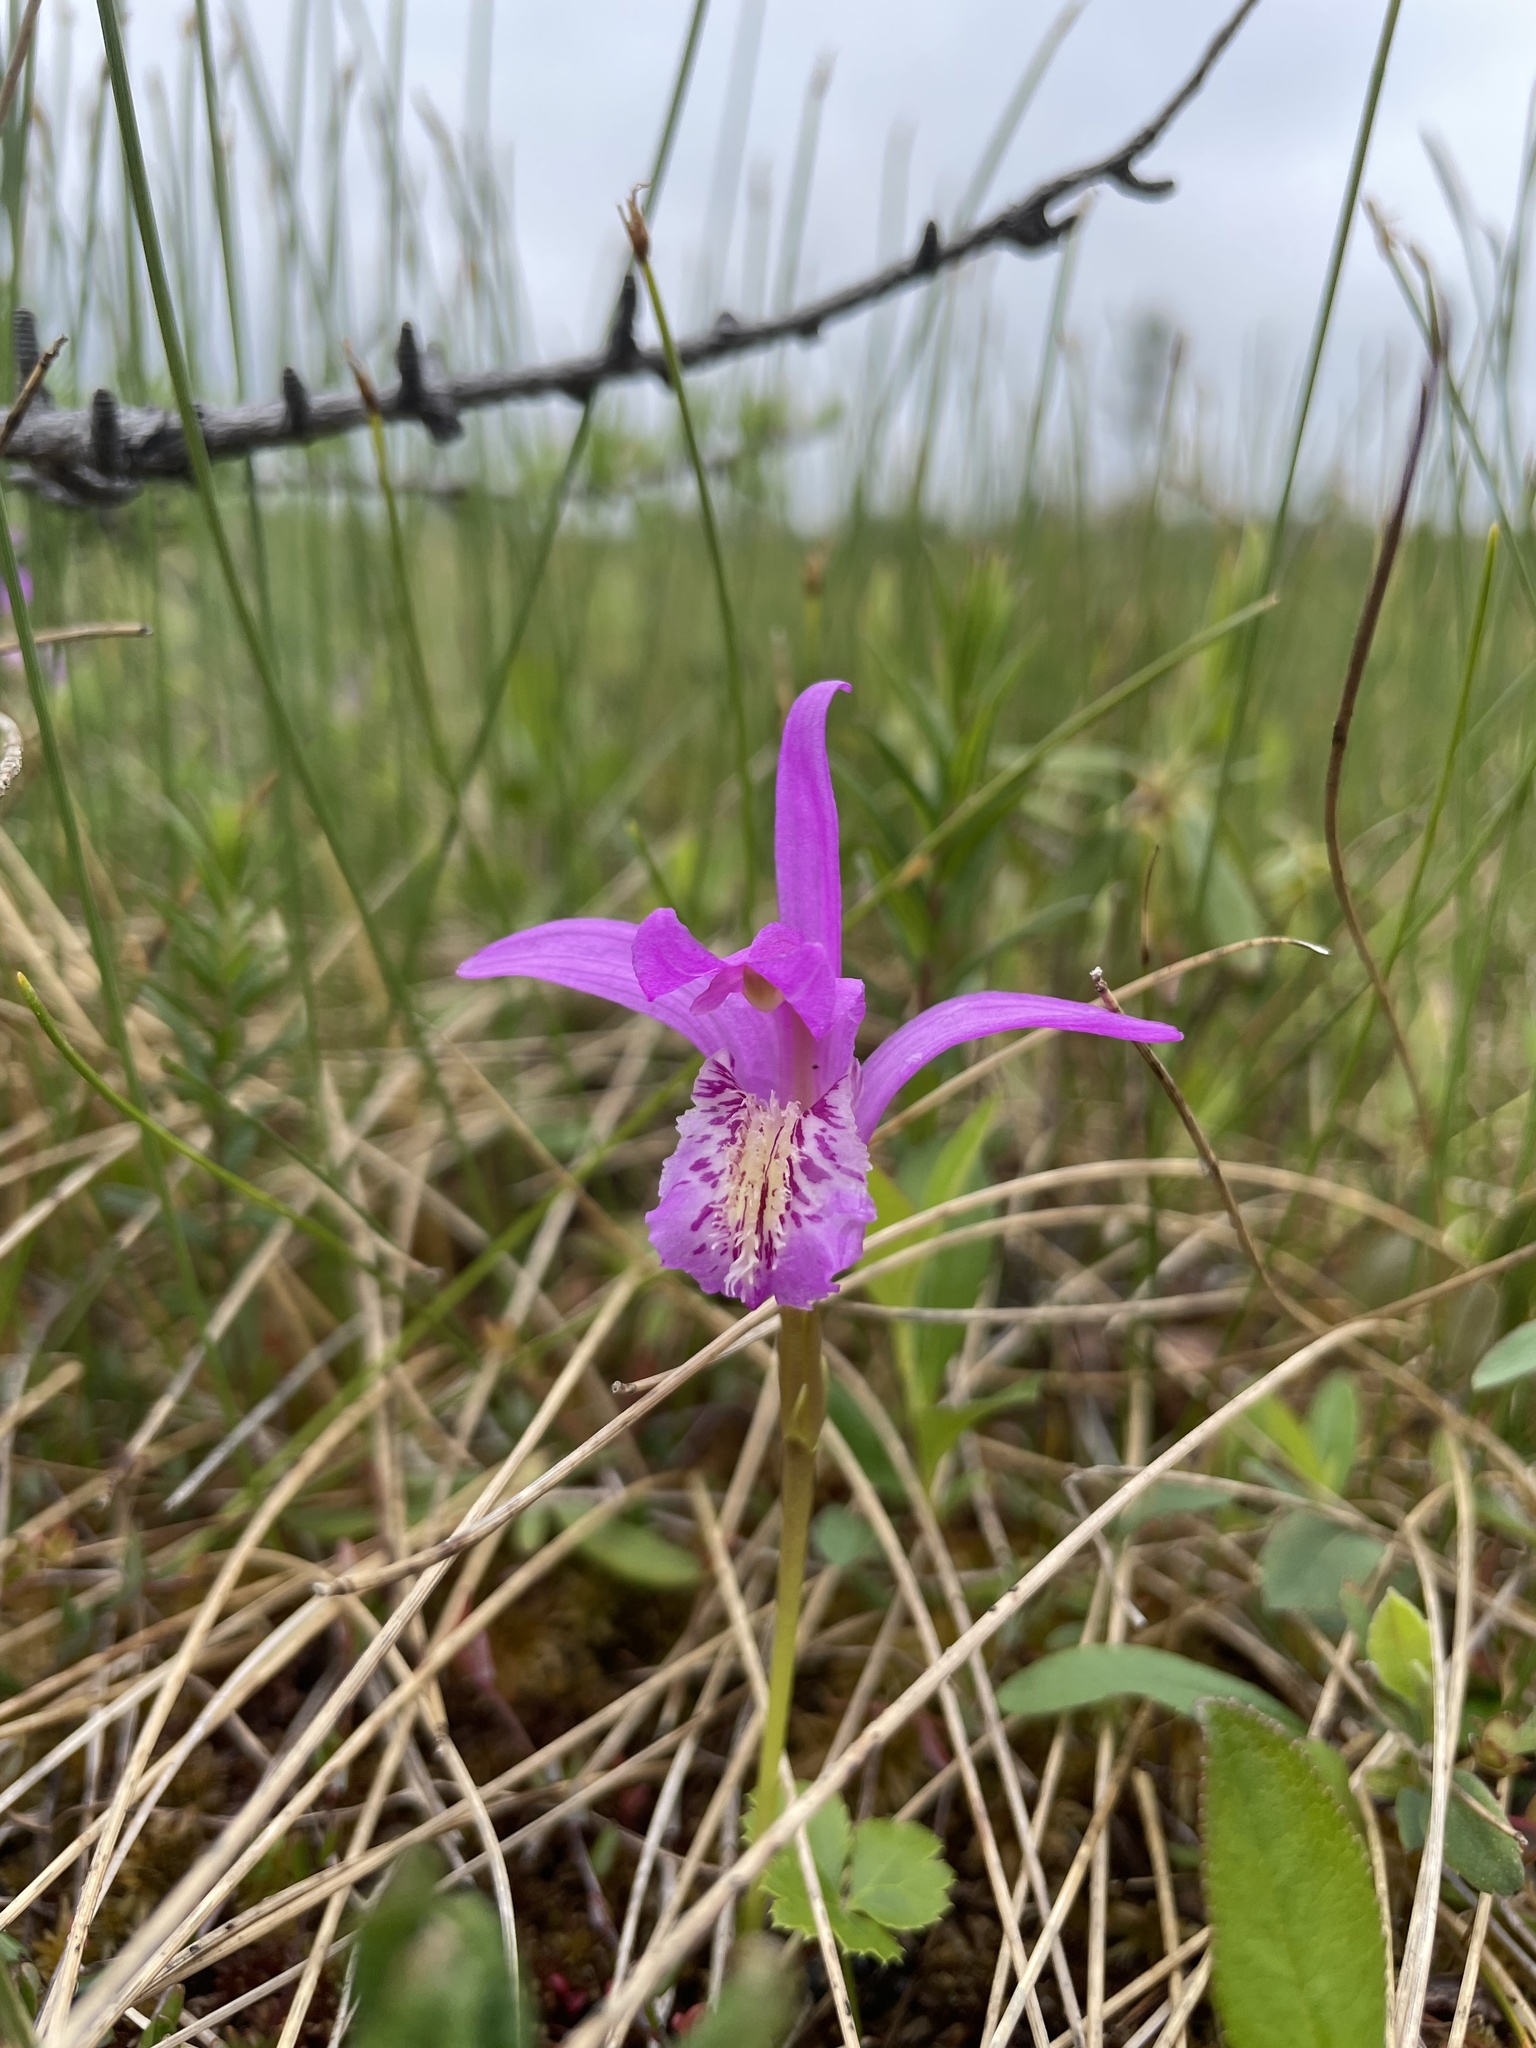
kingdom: Plantae
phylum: Tracheophyta
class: Liliopsida
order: Asparagales
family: Orchidaceae
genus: Arethusa
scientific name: Arethusa bulbosa
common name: Arethusa
